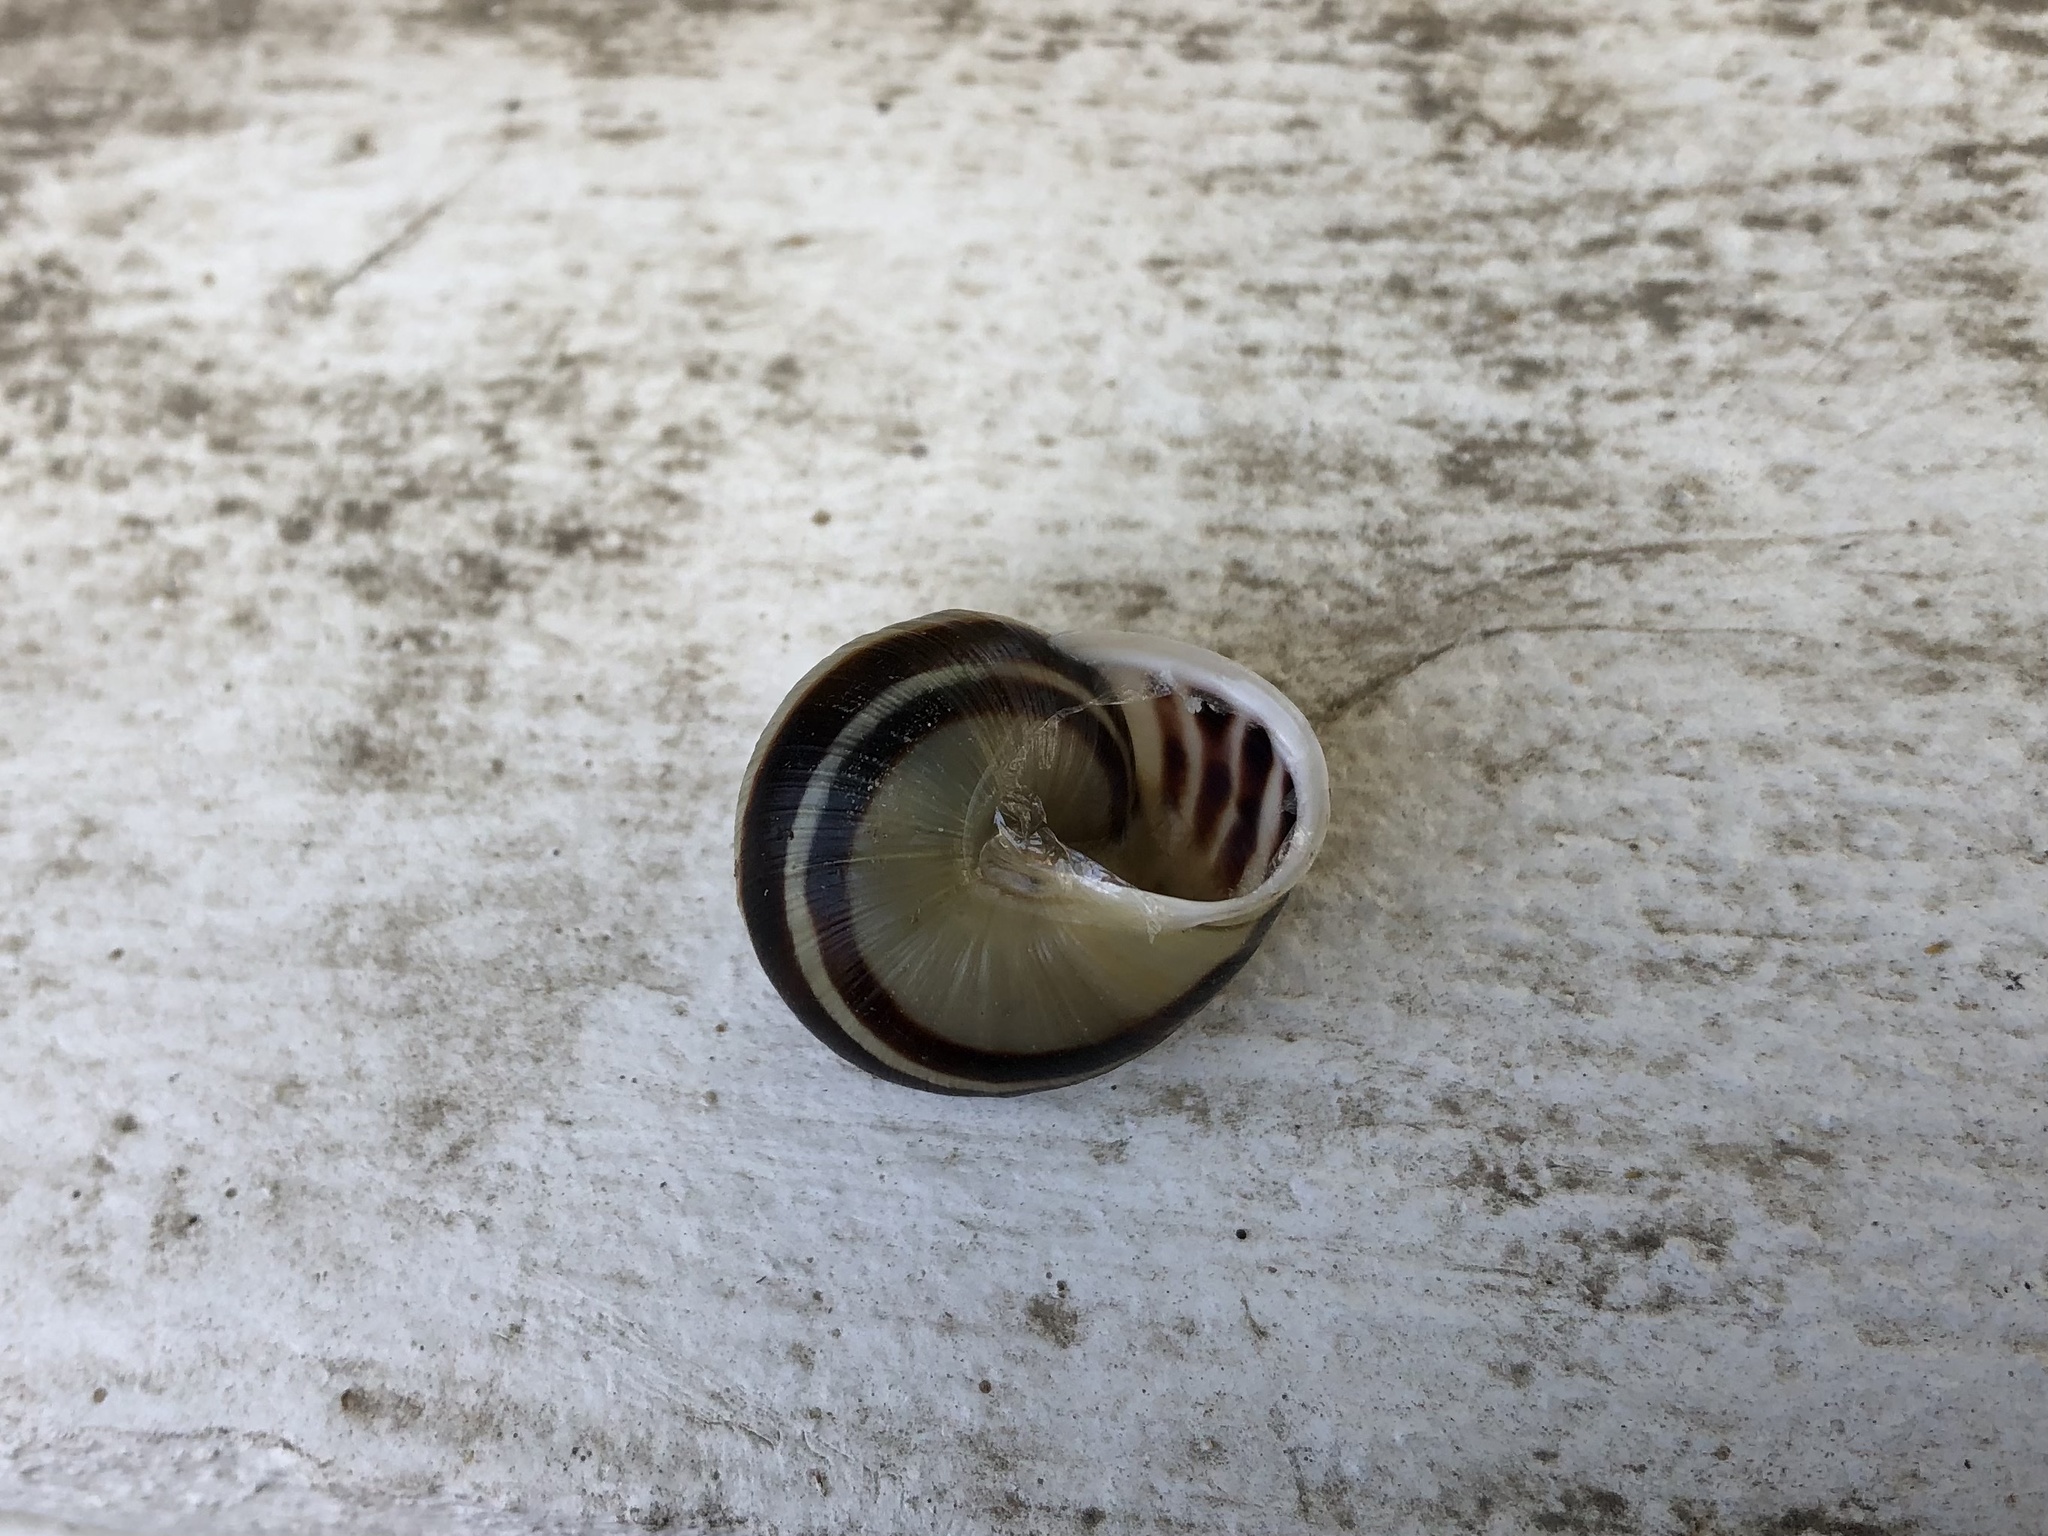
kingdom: Animalia
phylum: Mollusca
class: Gastropoda
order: Stylommatophora
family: Helicidae
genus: Cepaea
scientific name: Cepaea hortensis
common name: White-lip gardensnail
